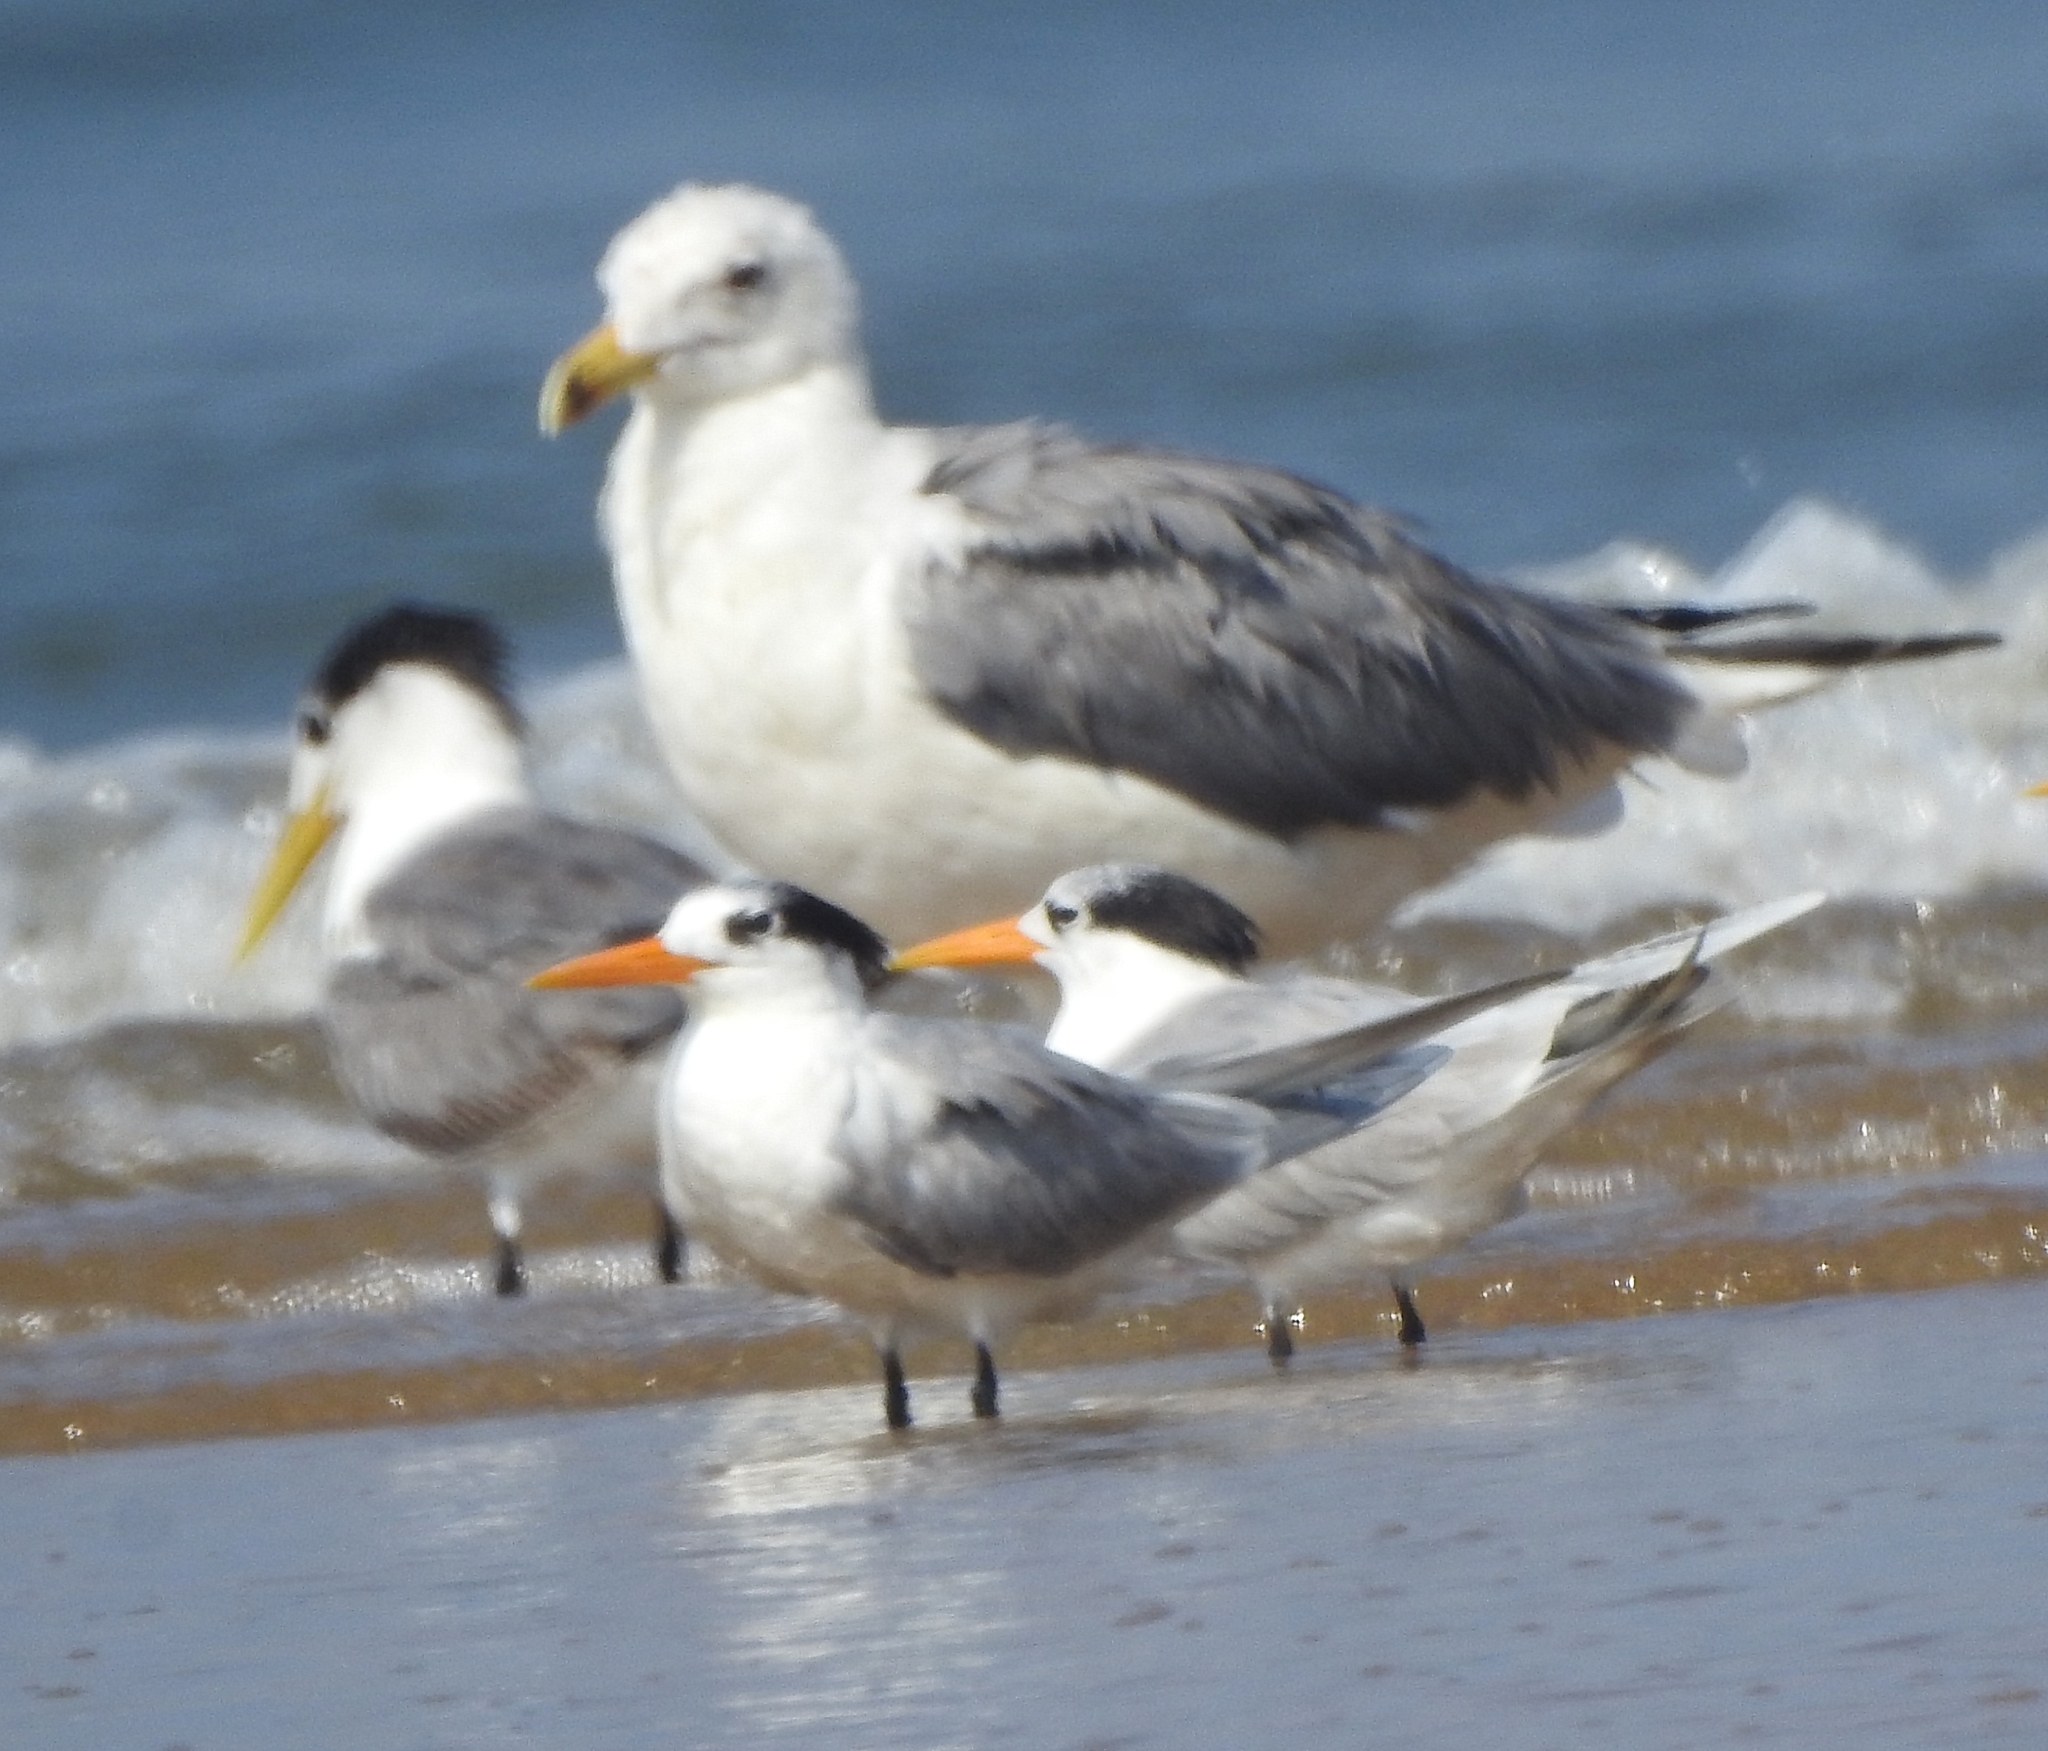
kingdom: Animalia
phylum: Chordata
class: Aves
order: Charadriiformes
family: Laridae
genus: Thalasseus
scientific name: Thalasseus bengalensis
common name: Lesser crested tern
